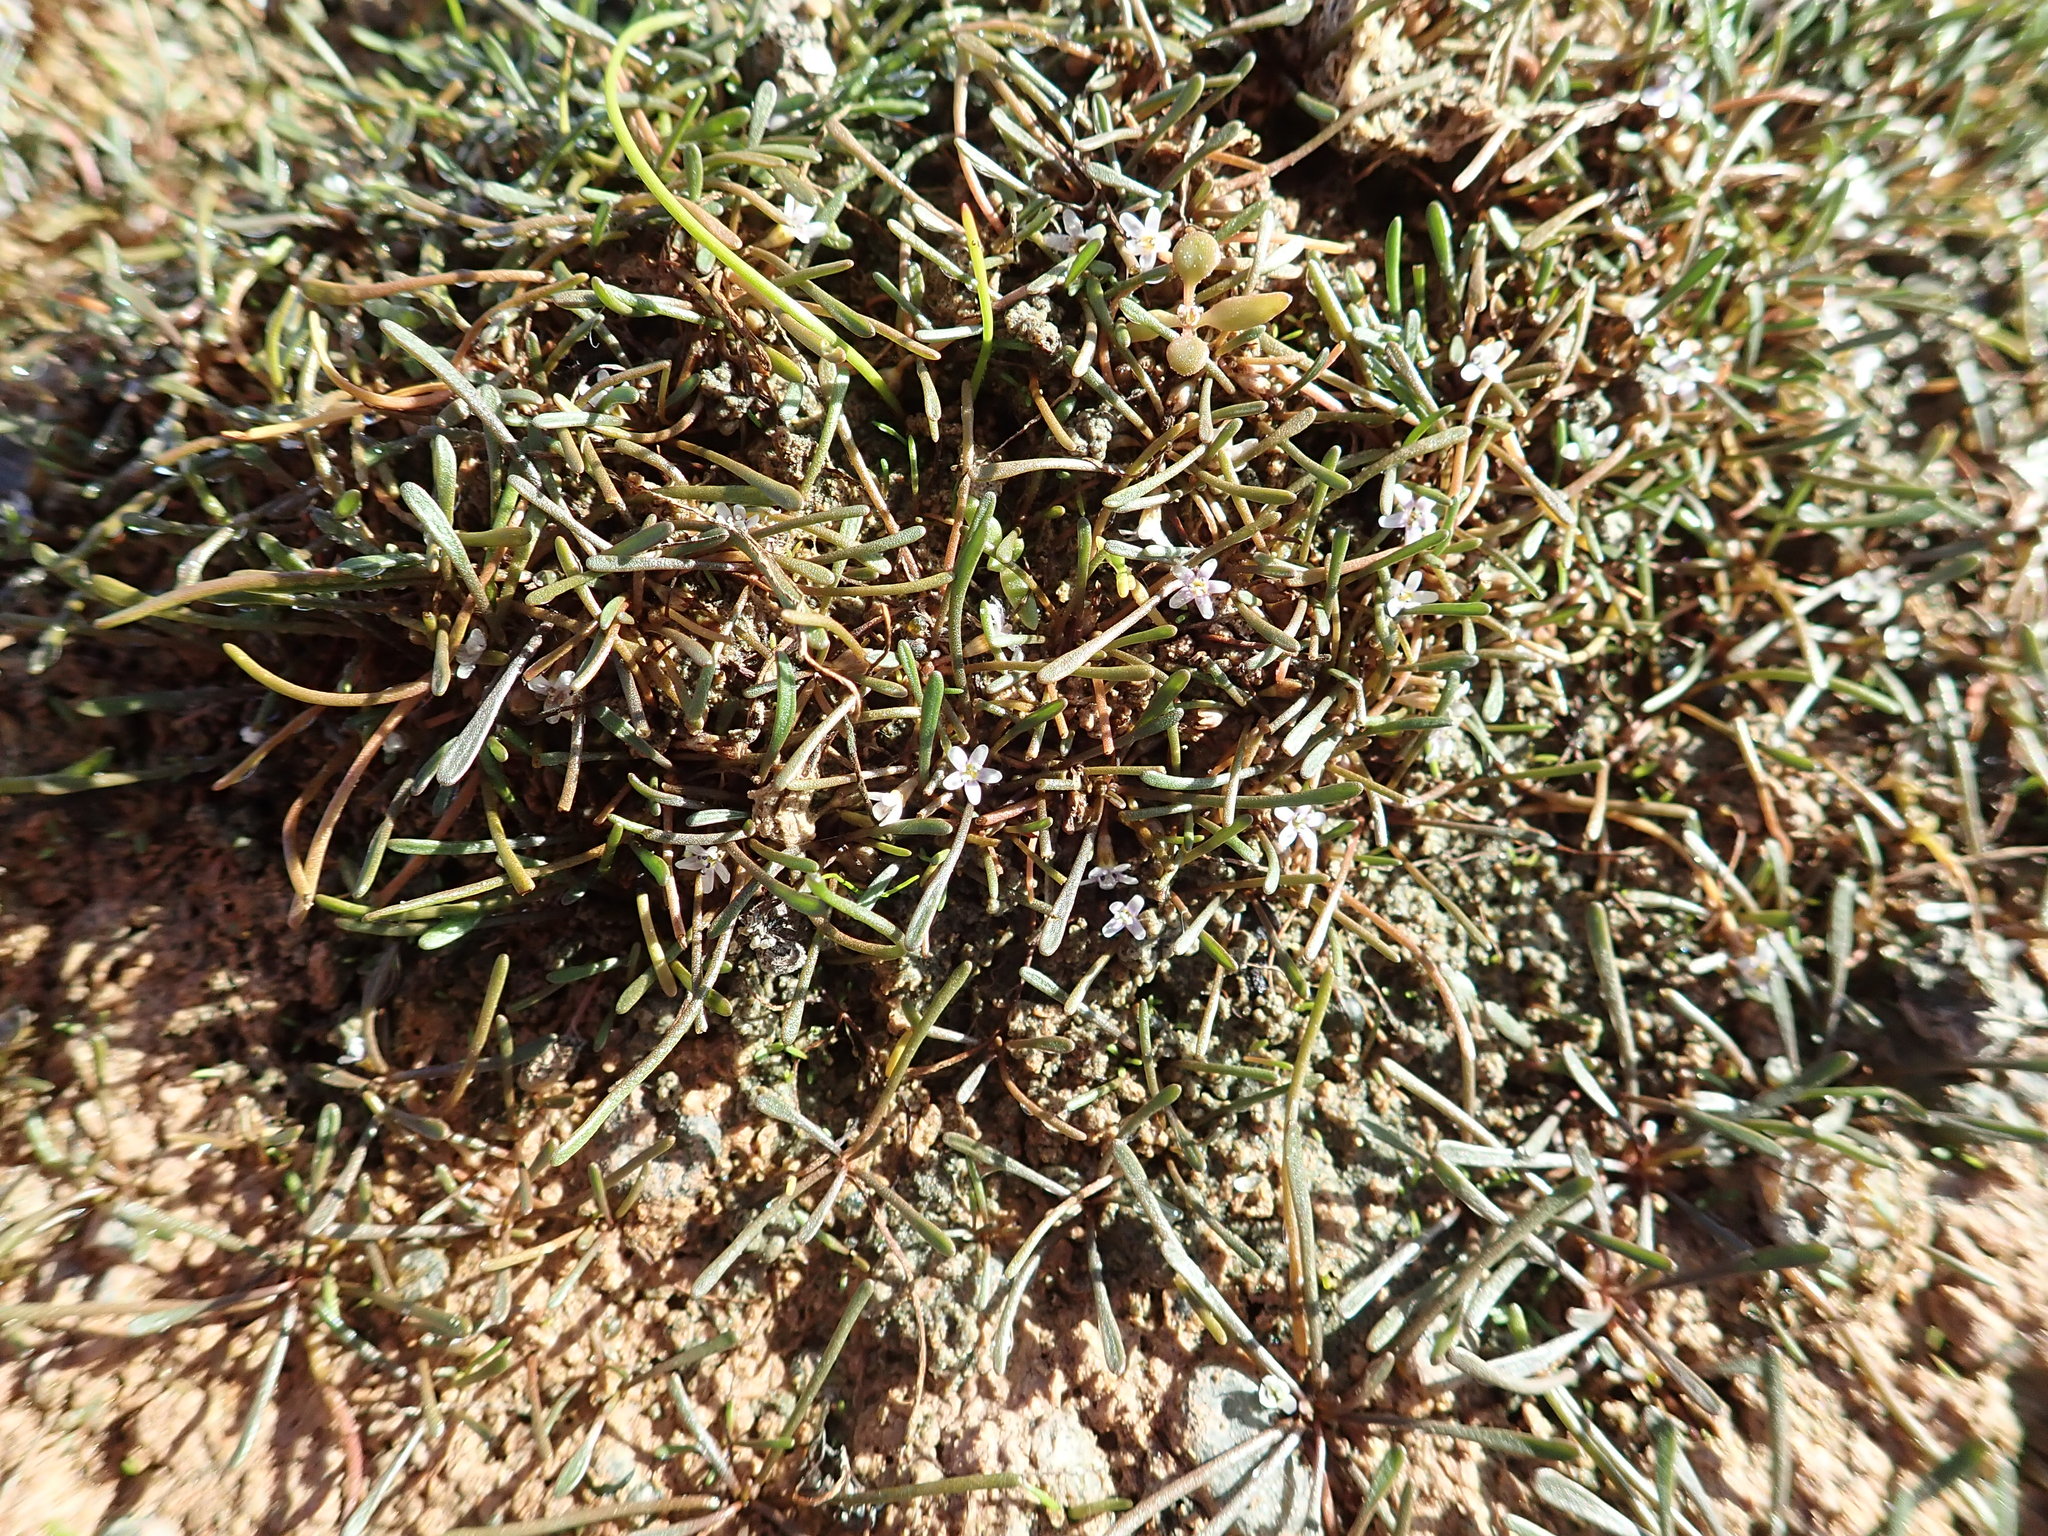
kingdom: Plantae
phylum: Tracheophyta
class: Magnoliopsida
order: Lamiales
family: Scrophulariaceae
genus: Limosella
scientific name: Limosella australis
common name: Welsh mudwort
